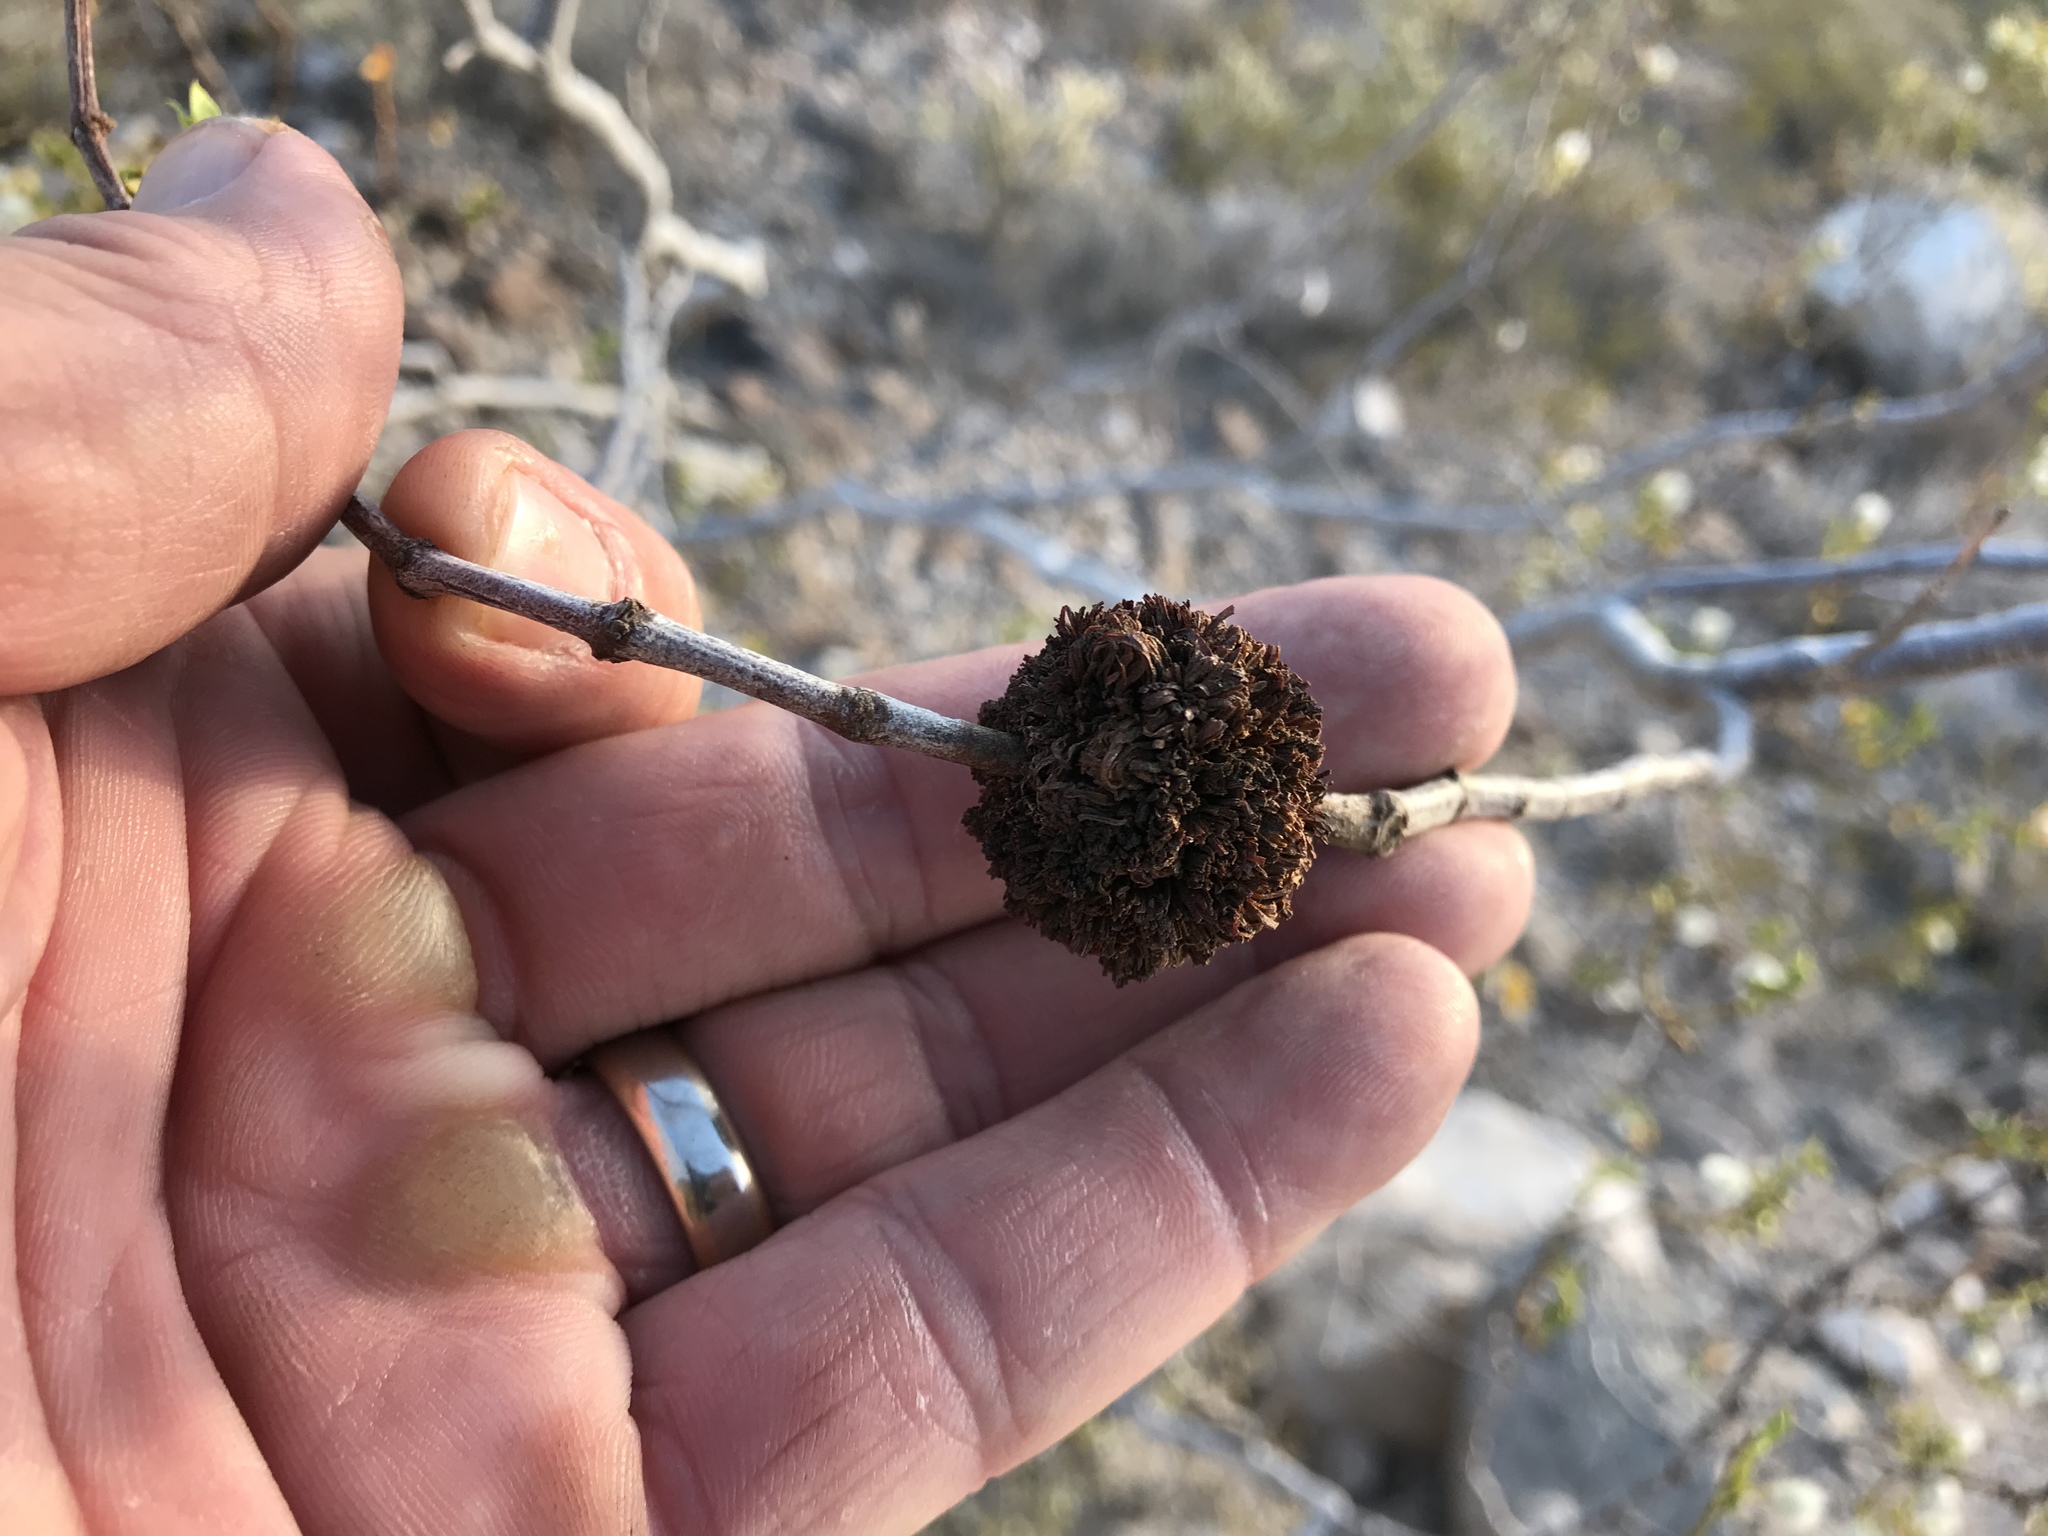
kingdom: Animalia
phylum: Arthropoda
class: Insecta
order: Diptera
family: Cecidomyiidae
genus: Asphondylia
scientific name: Asphondylia auripila
